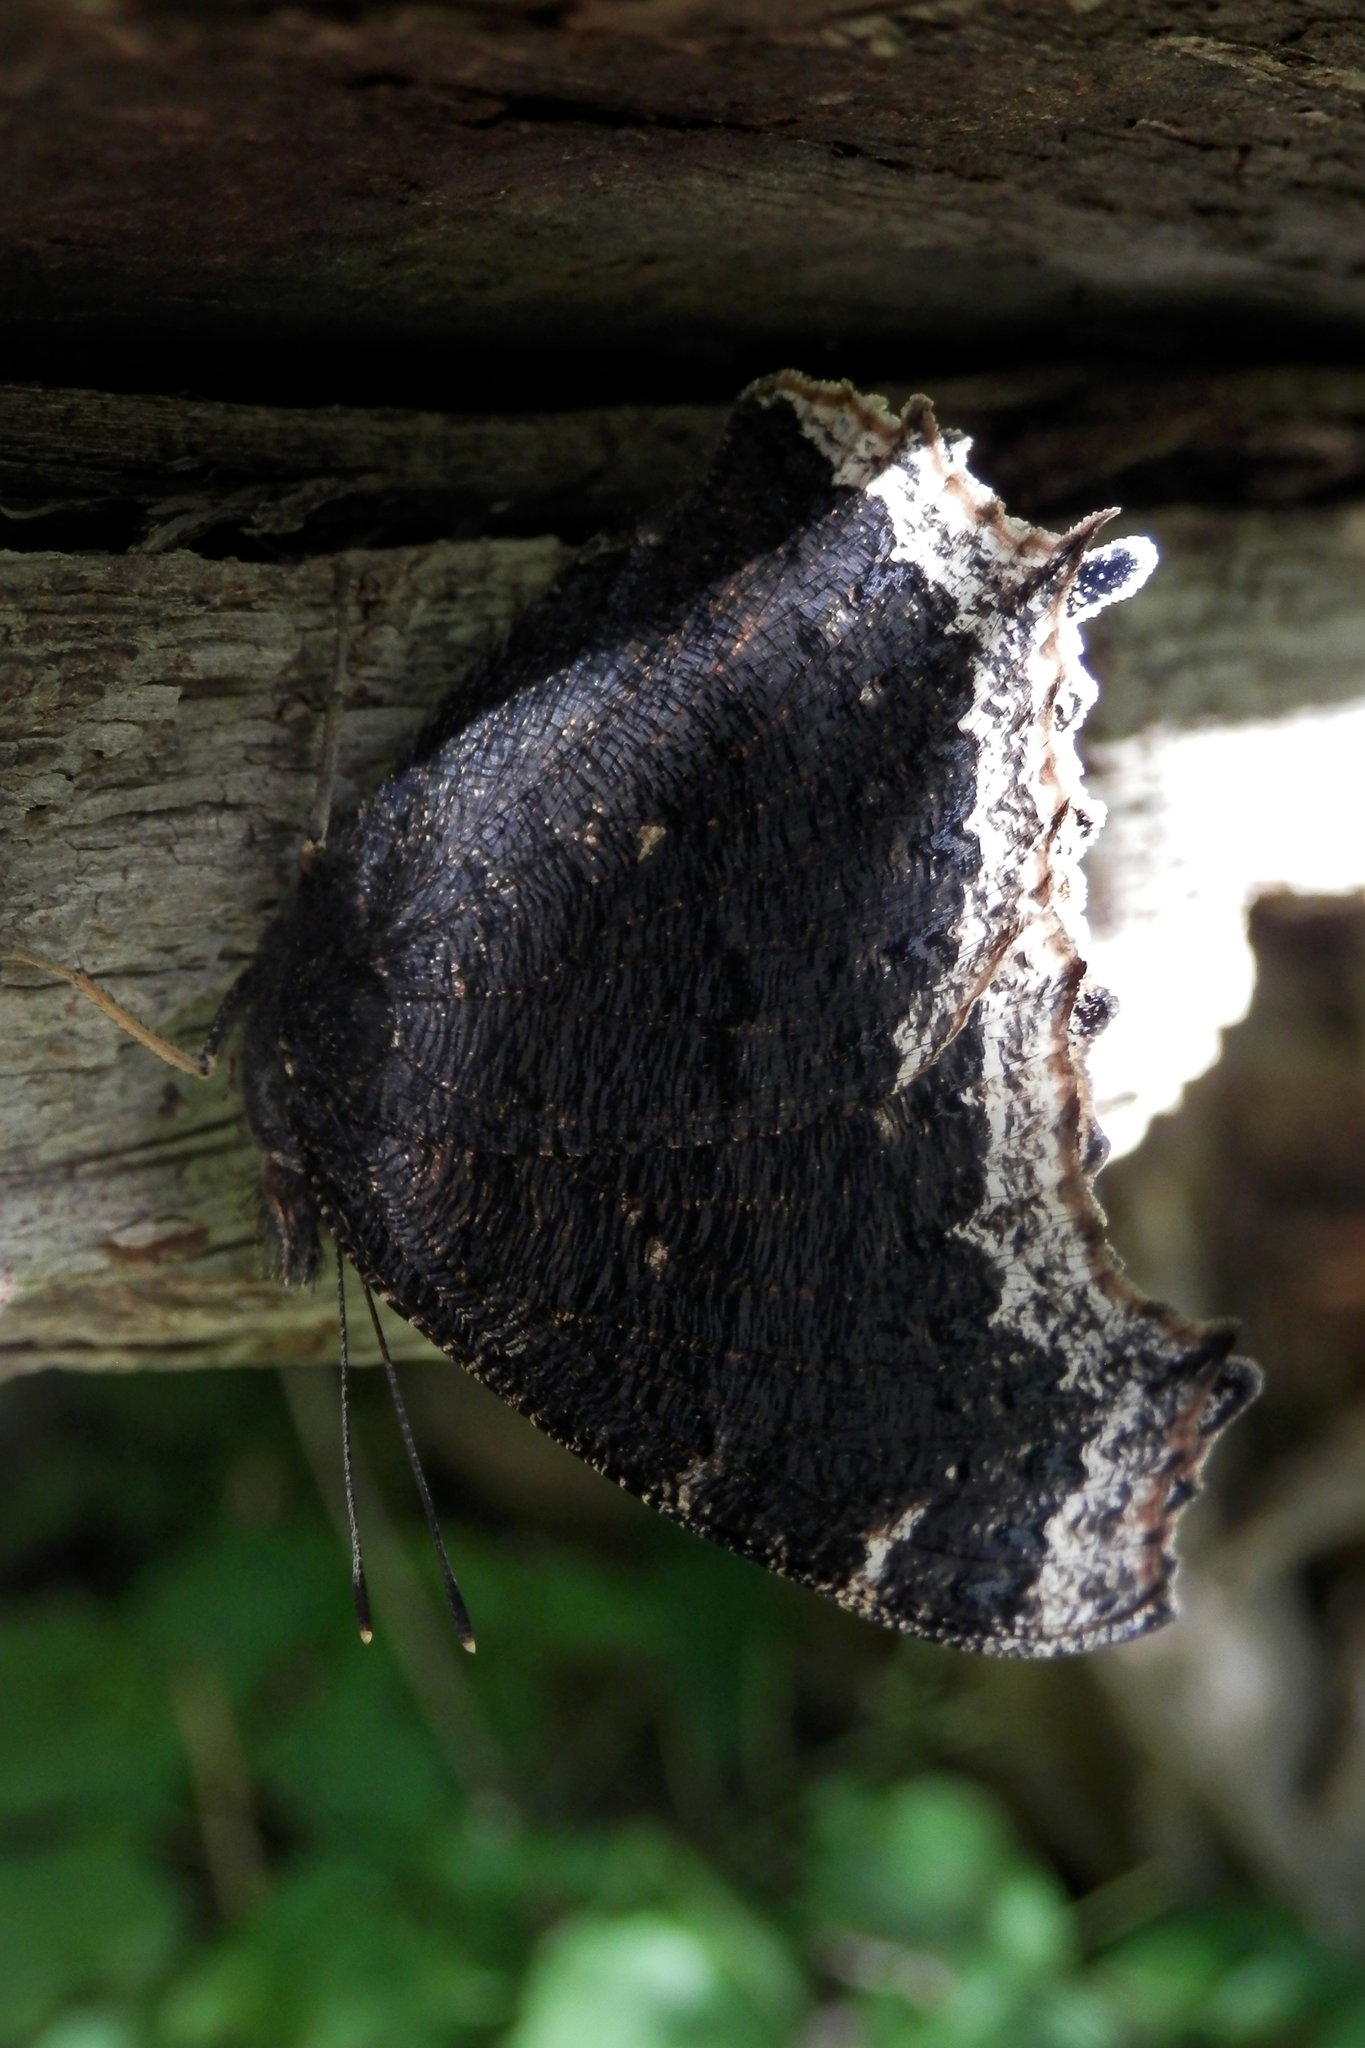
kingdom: Animalia
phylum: Arthropoda
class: Insecta
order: Lepidoptera
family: Nymphalidae
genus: Nymphalis
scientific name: Nymphalis antiopa
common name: Camberwell beauty
